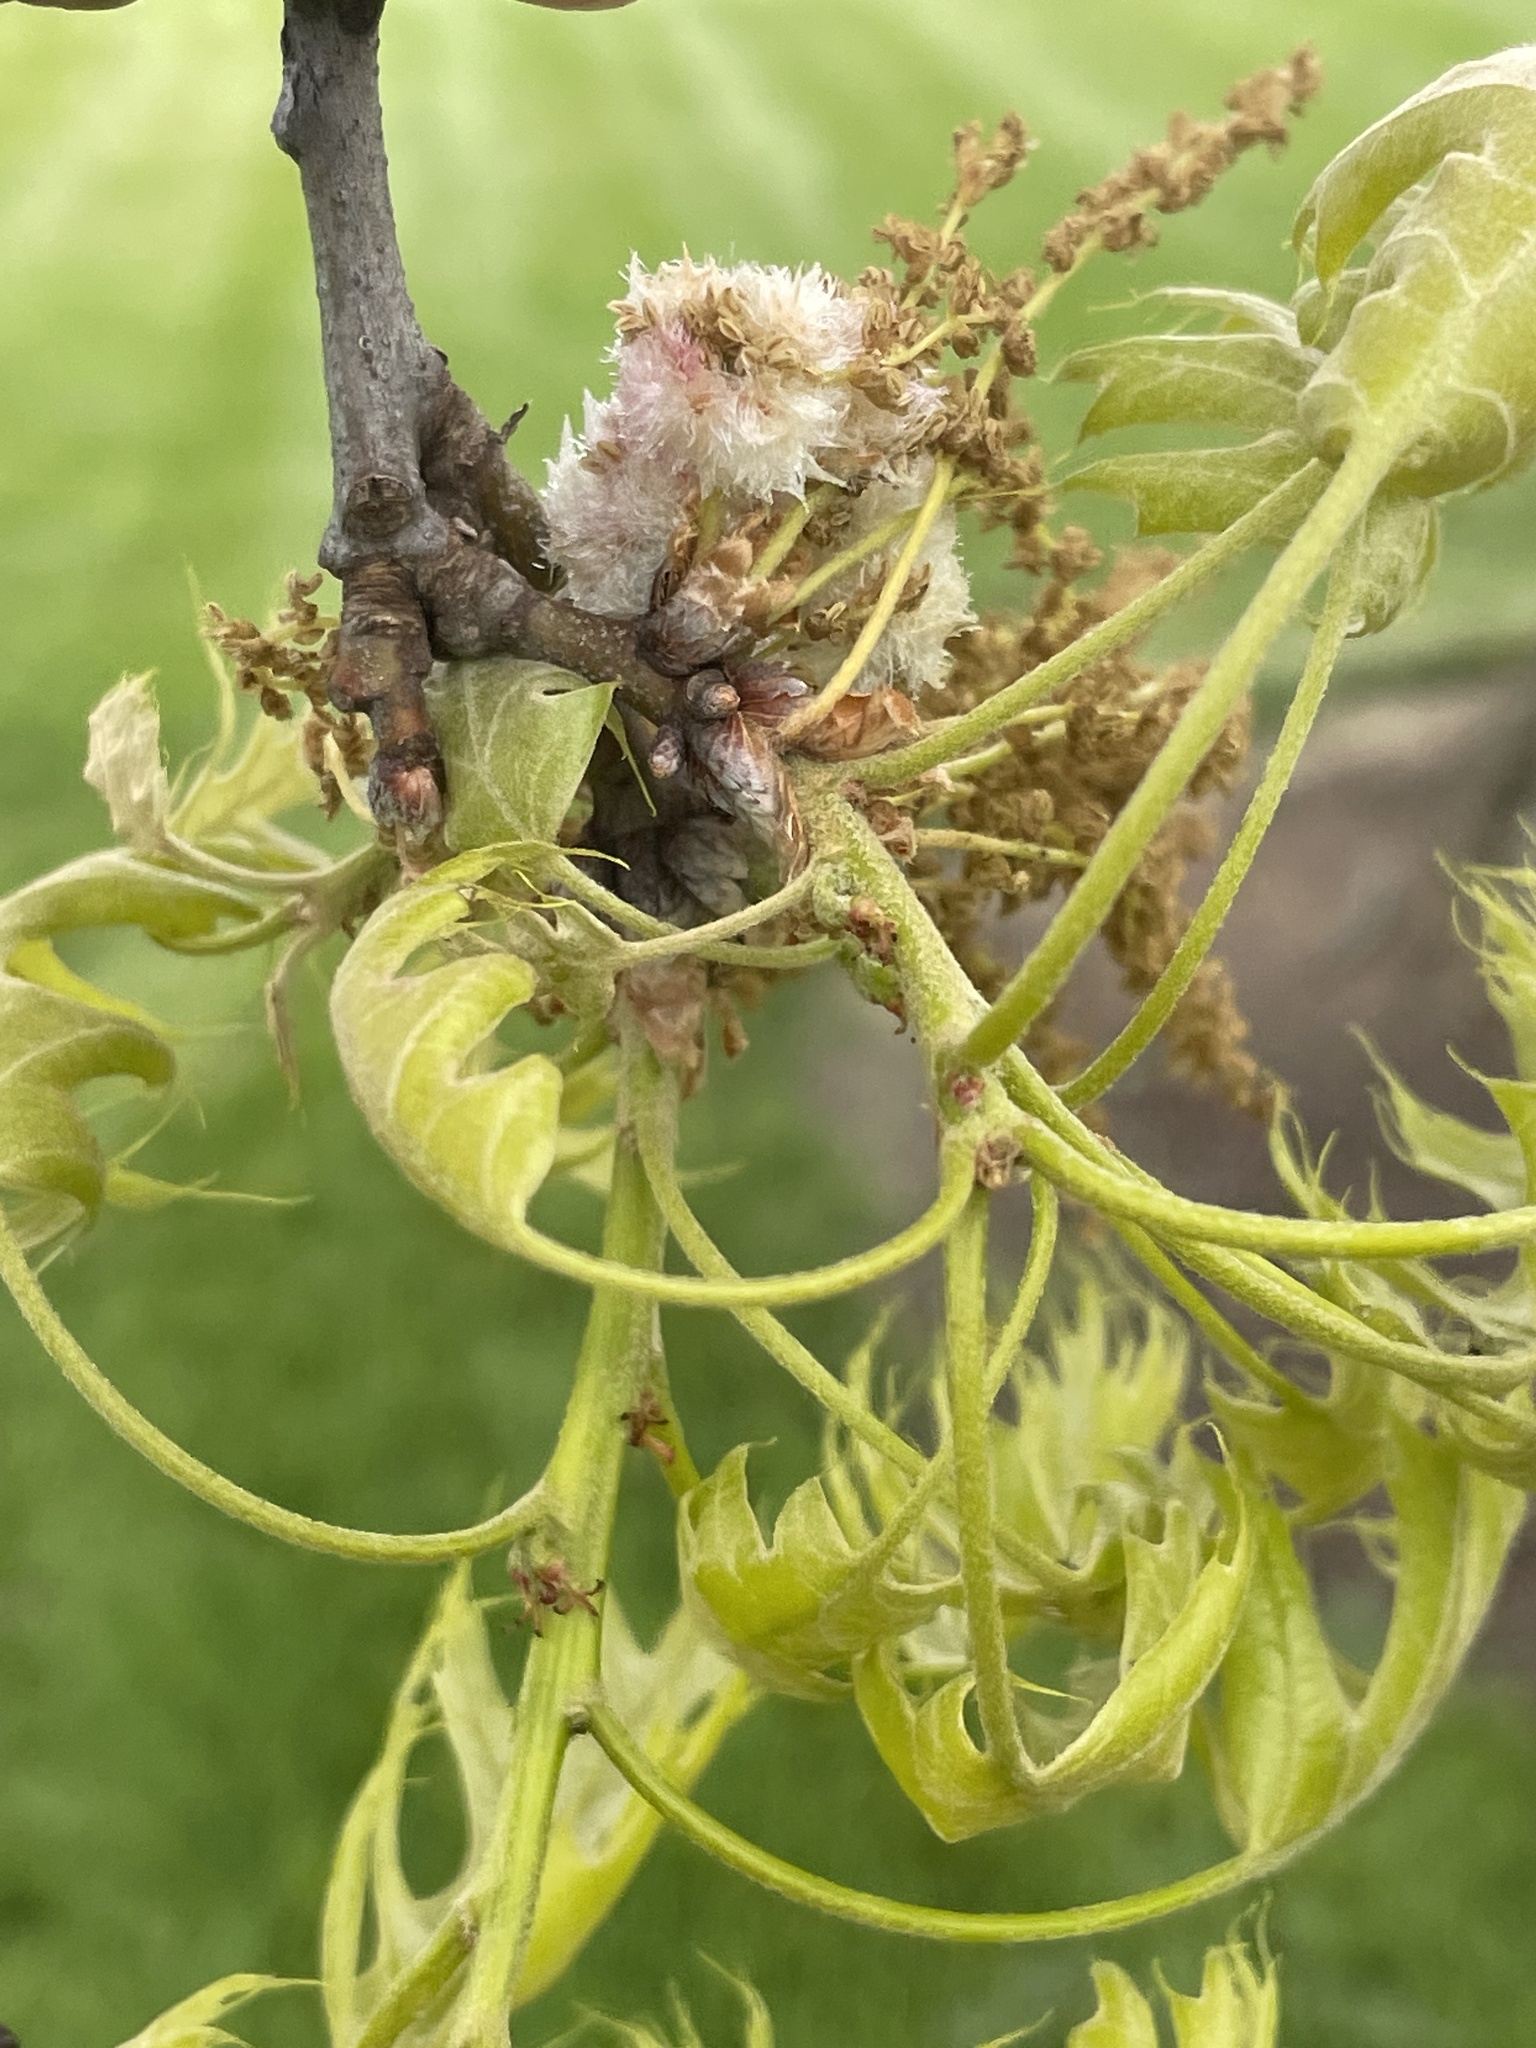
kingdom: Animalia
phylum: Arthropoda
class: Insecta
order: Hymenoptera
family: Cynipidae
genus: Callirhytis
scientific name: Callirhytis
